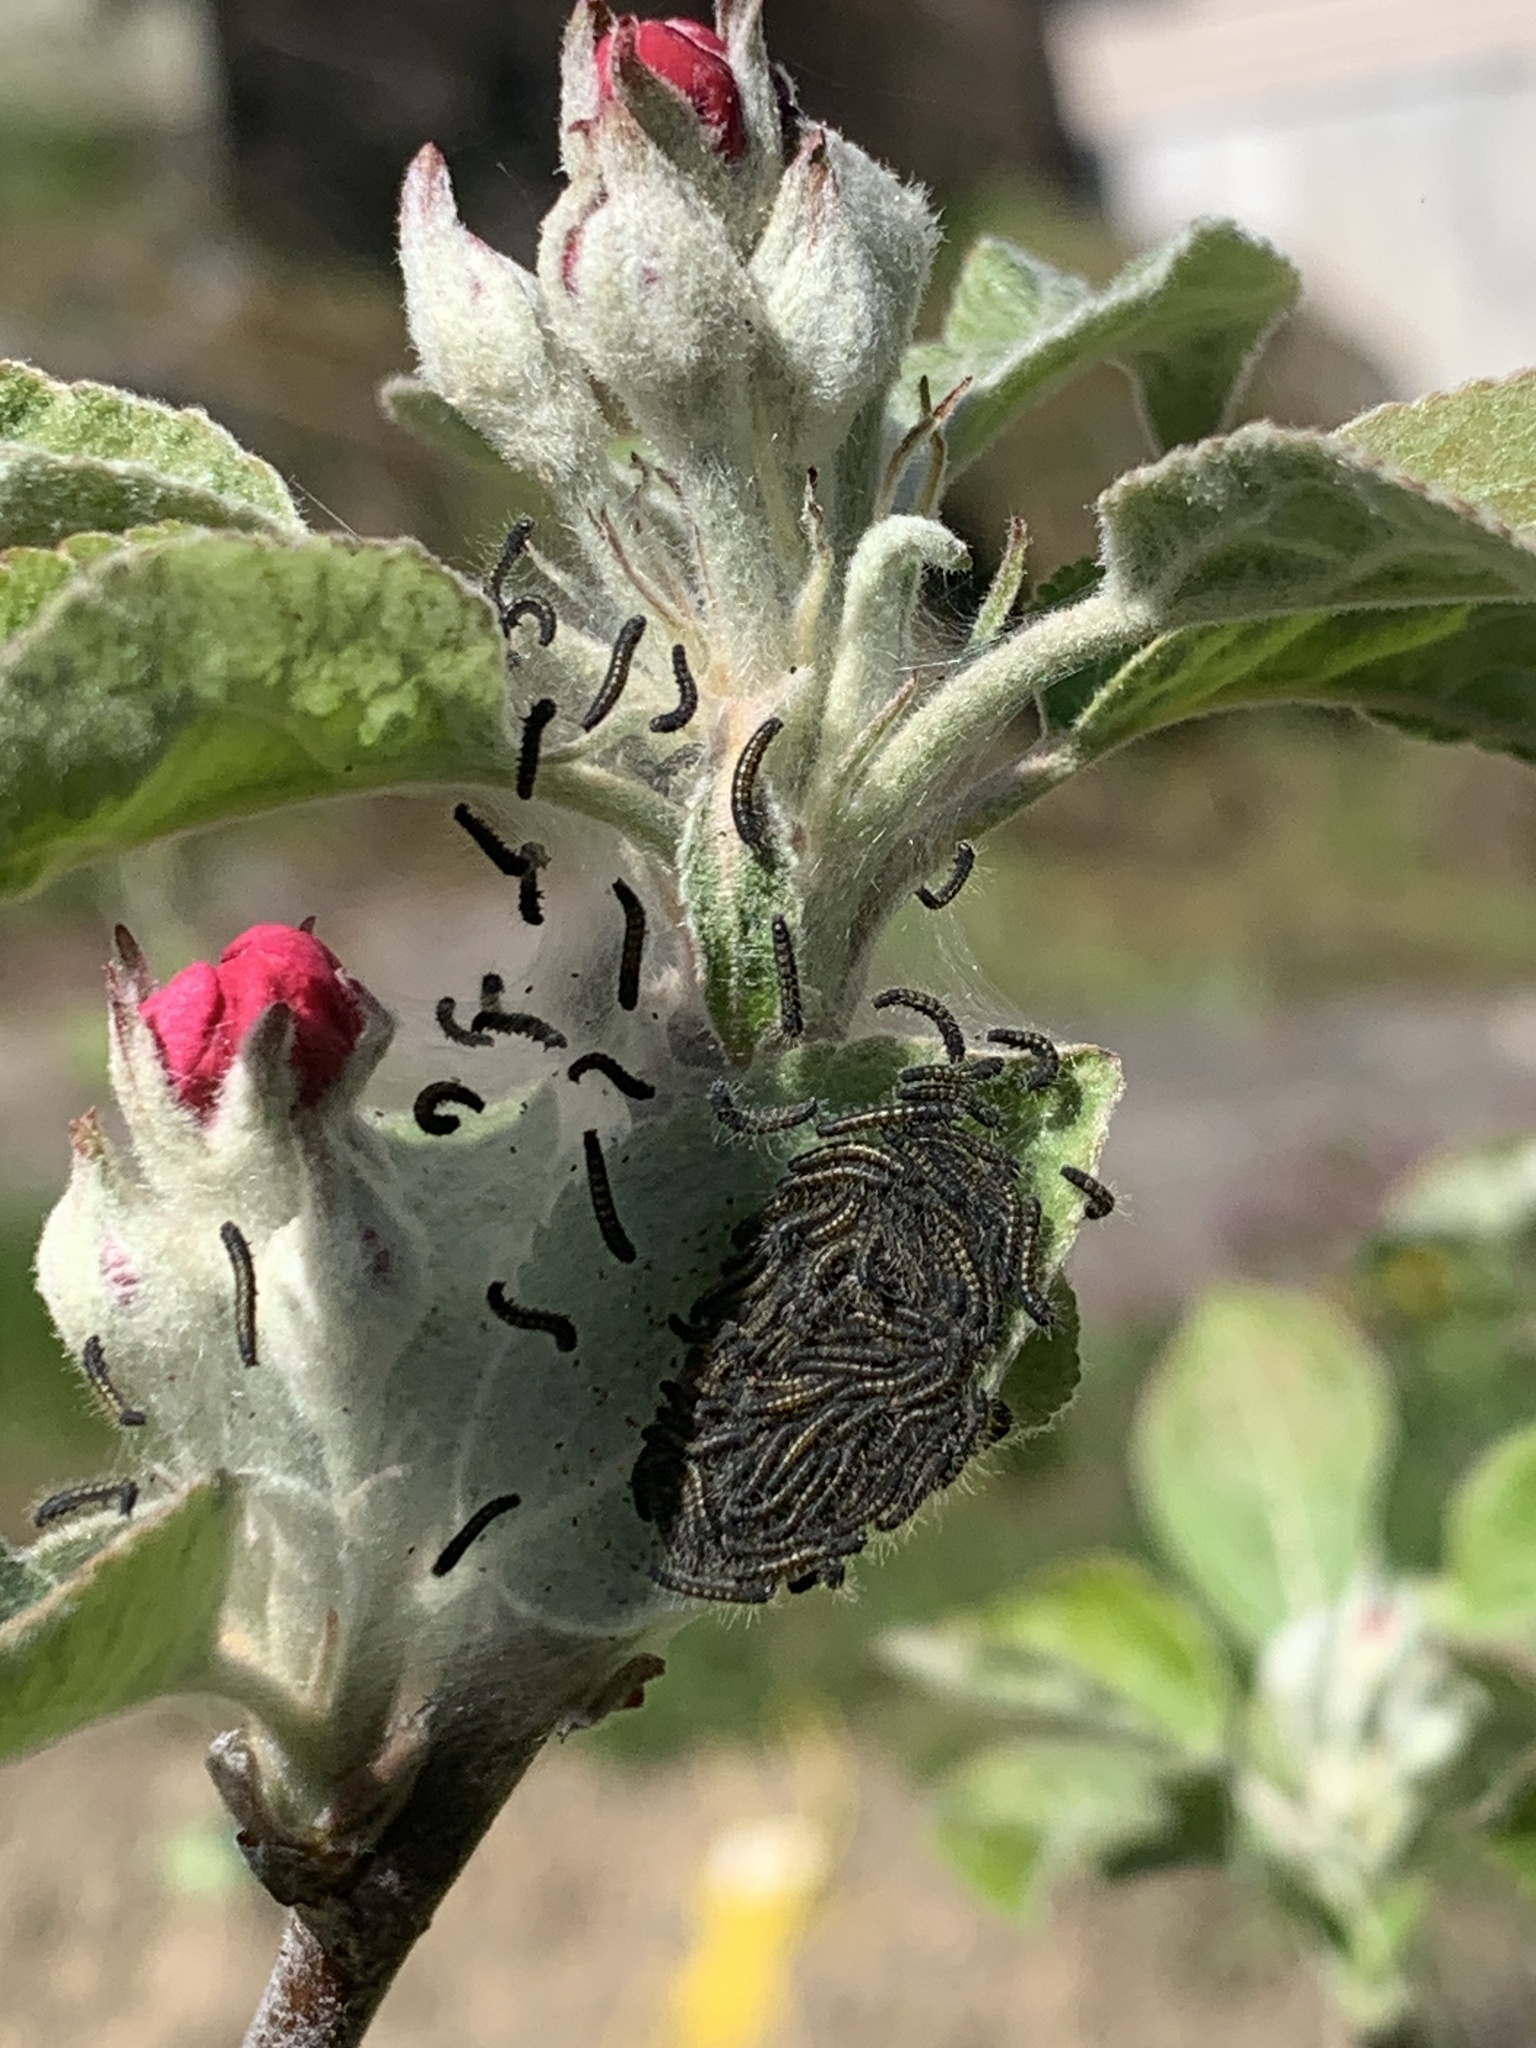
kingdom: Animalia
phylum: Arthropoda
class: Insecta
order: Lepidoptera
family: Lasiocampidae
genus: Malacosoma
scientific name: Malacosoma californica
